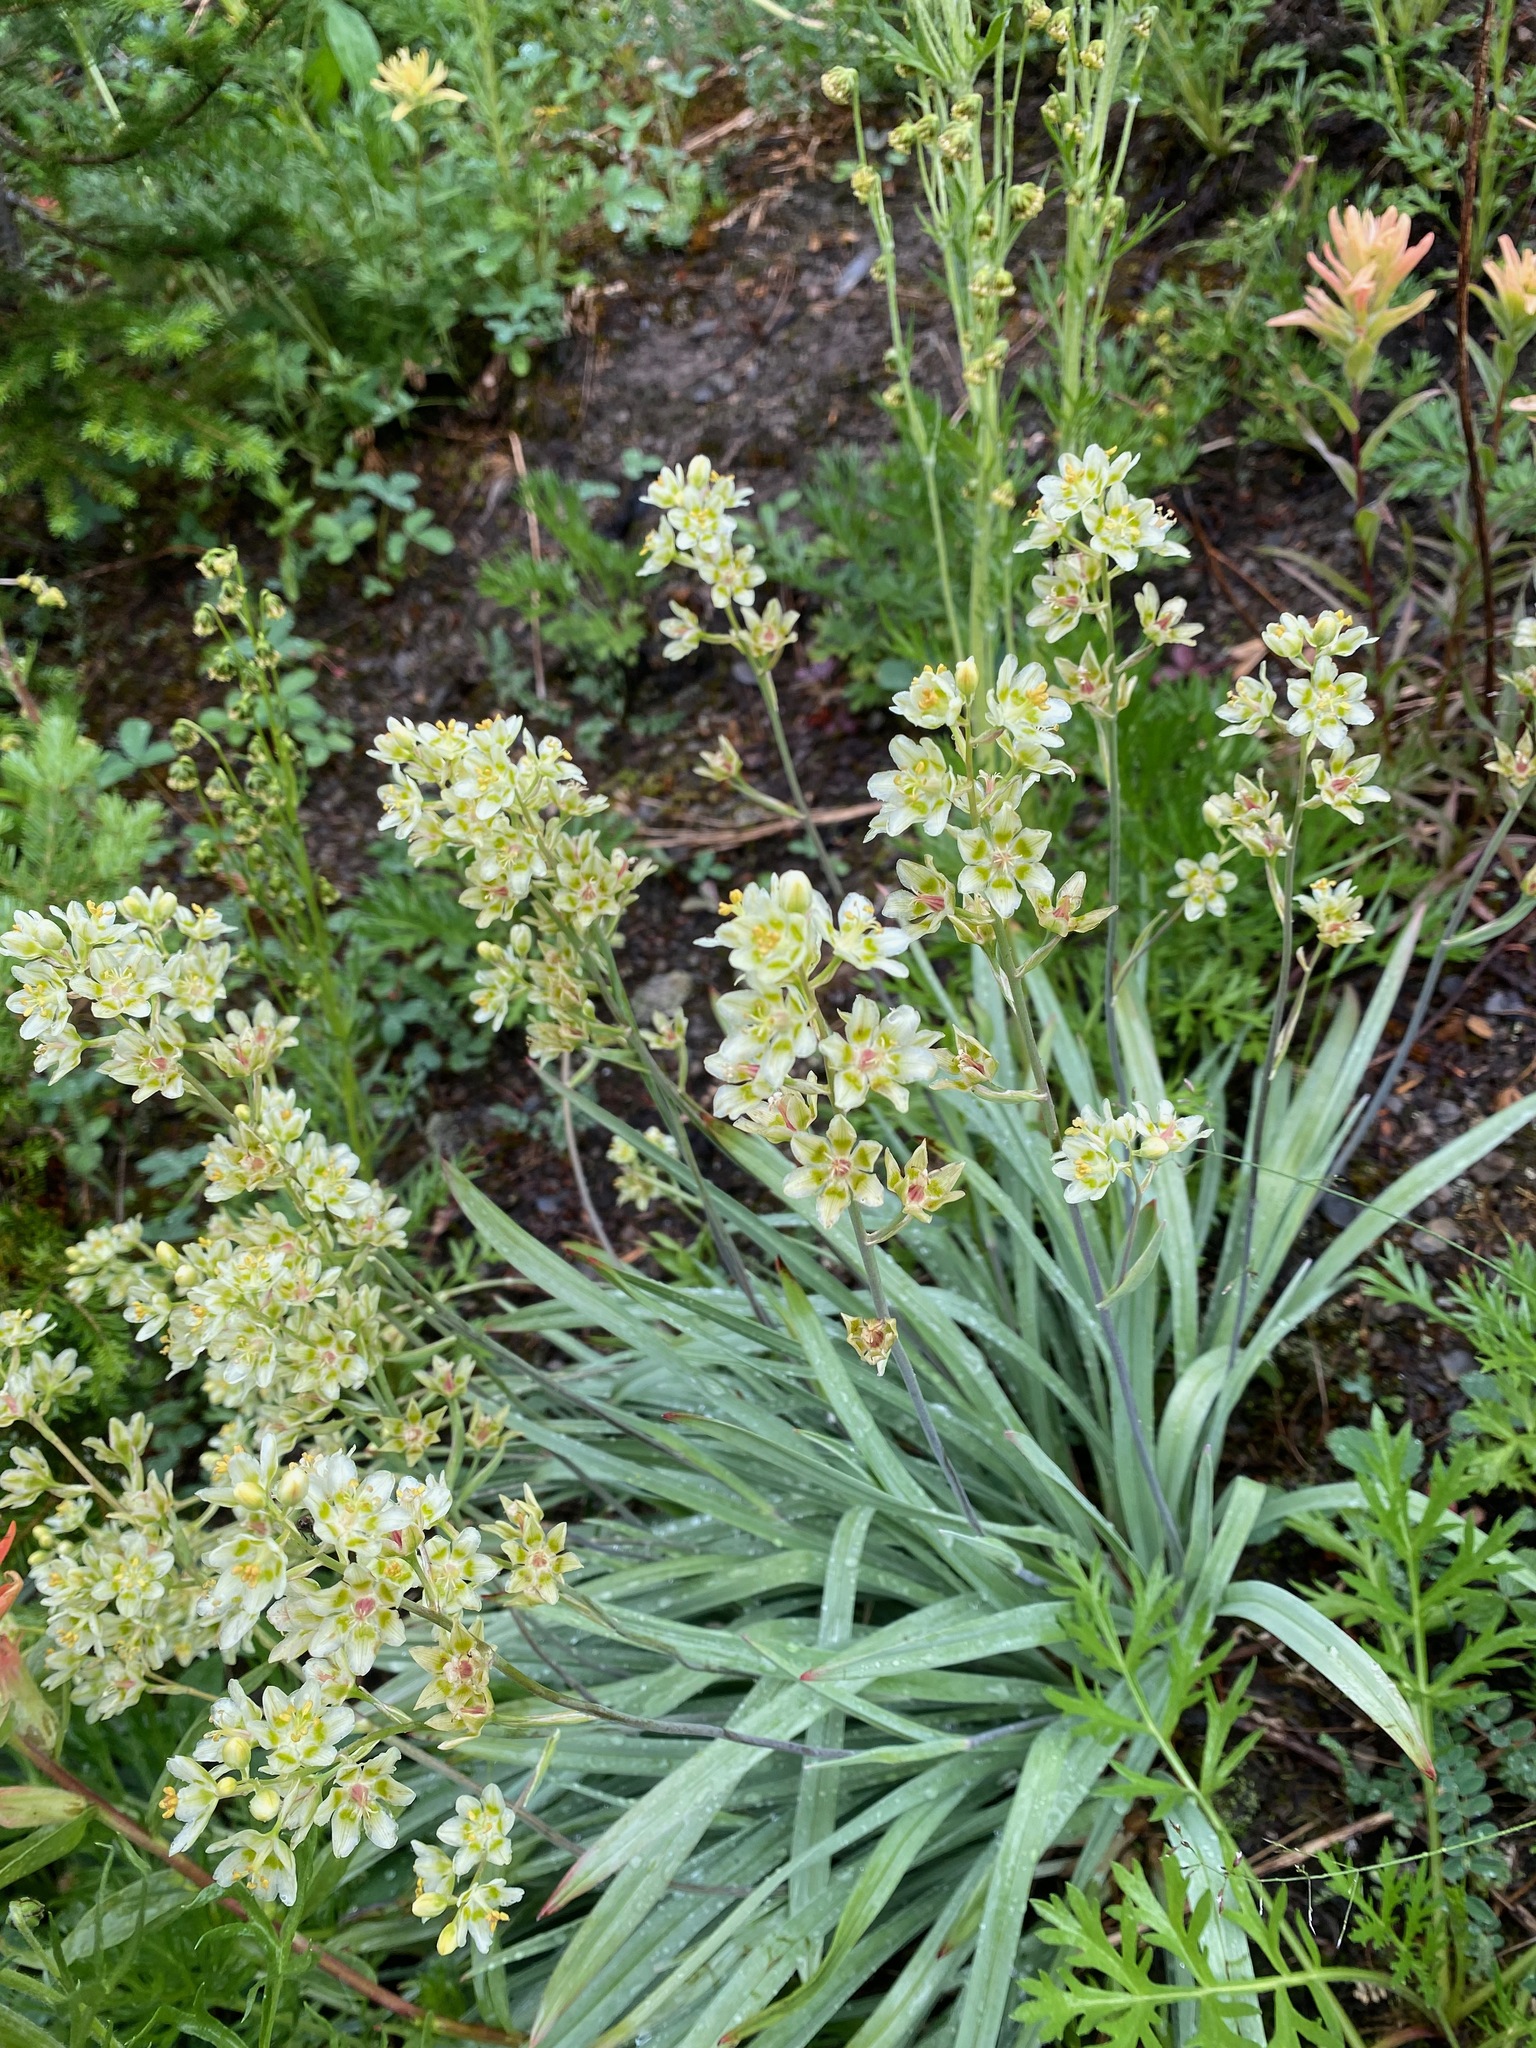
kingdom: Plantae
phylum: Tracheophyta
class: Liliopsida
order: Liliales
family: Melanthiaceae
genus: Anticlea
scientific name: Anticlea elegans
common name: Mountain death camas
